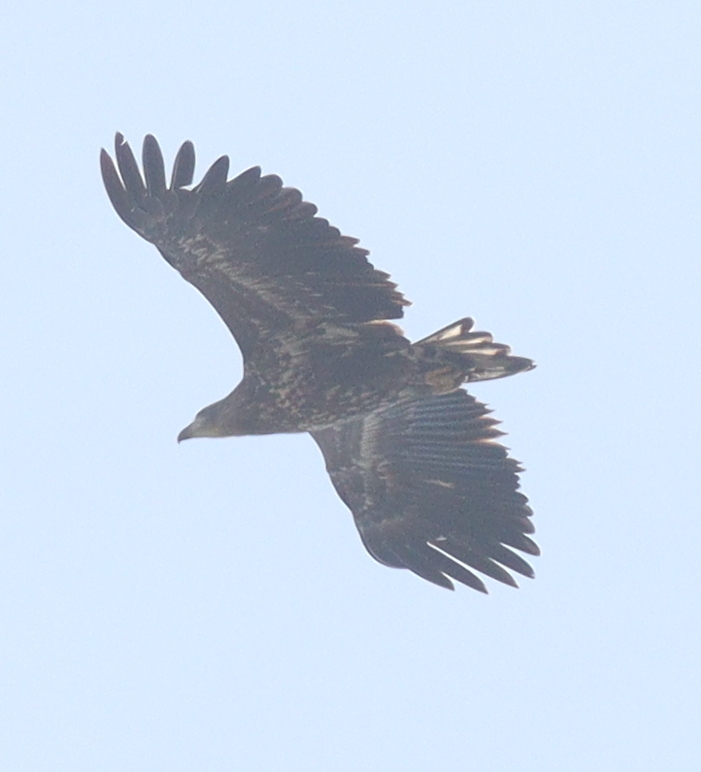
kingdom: Animalia
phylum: Chordata
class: Aves
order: Accipitriformes
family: Accipitridae
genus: Haliaeetus
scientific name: Haliaeetus albicilla
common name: White-tailed eagle
